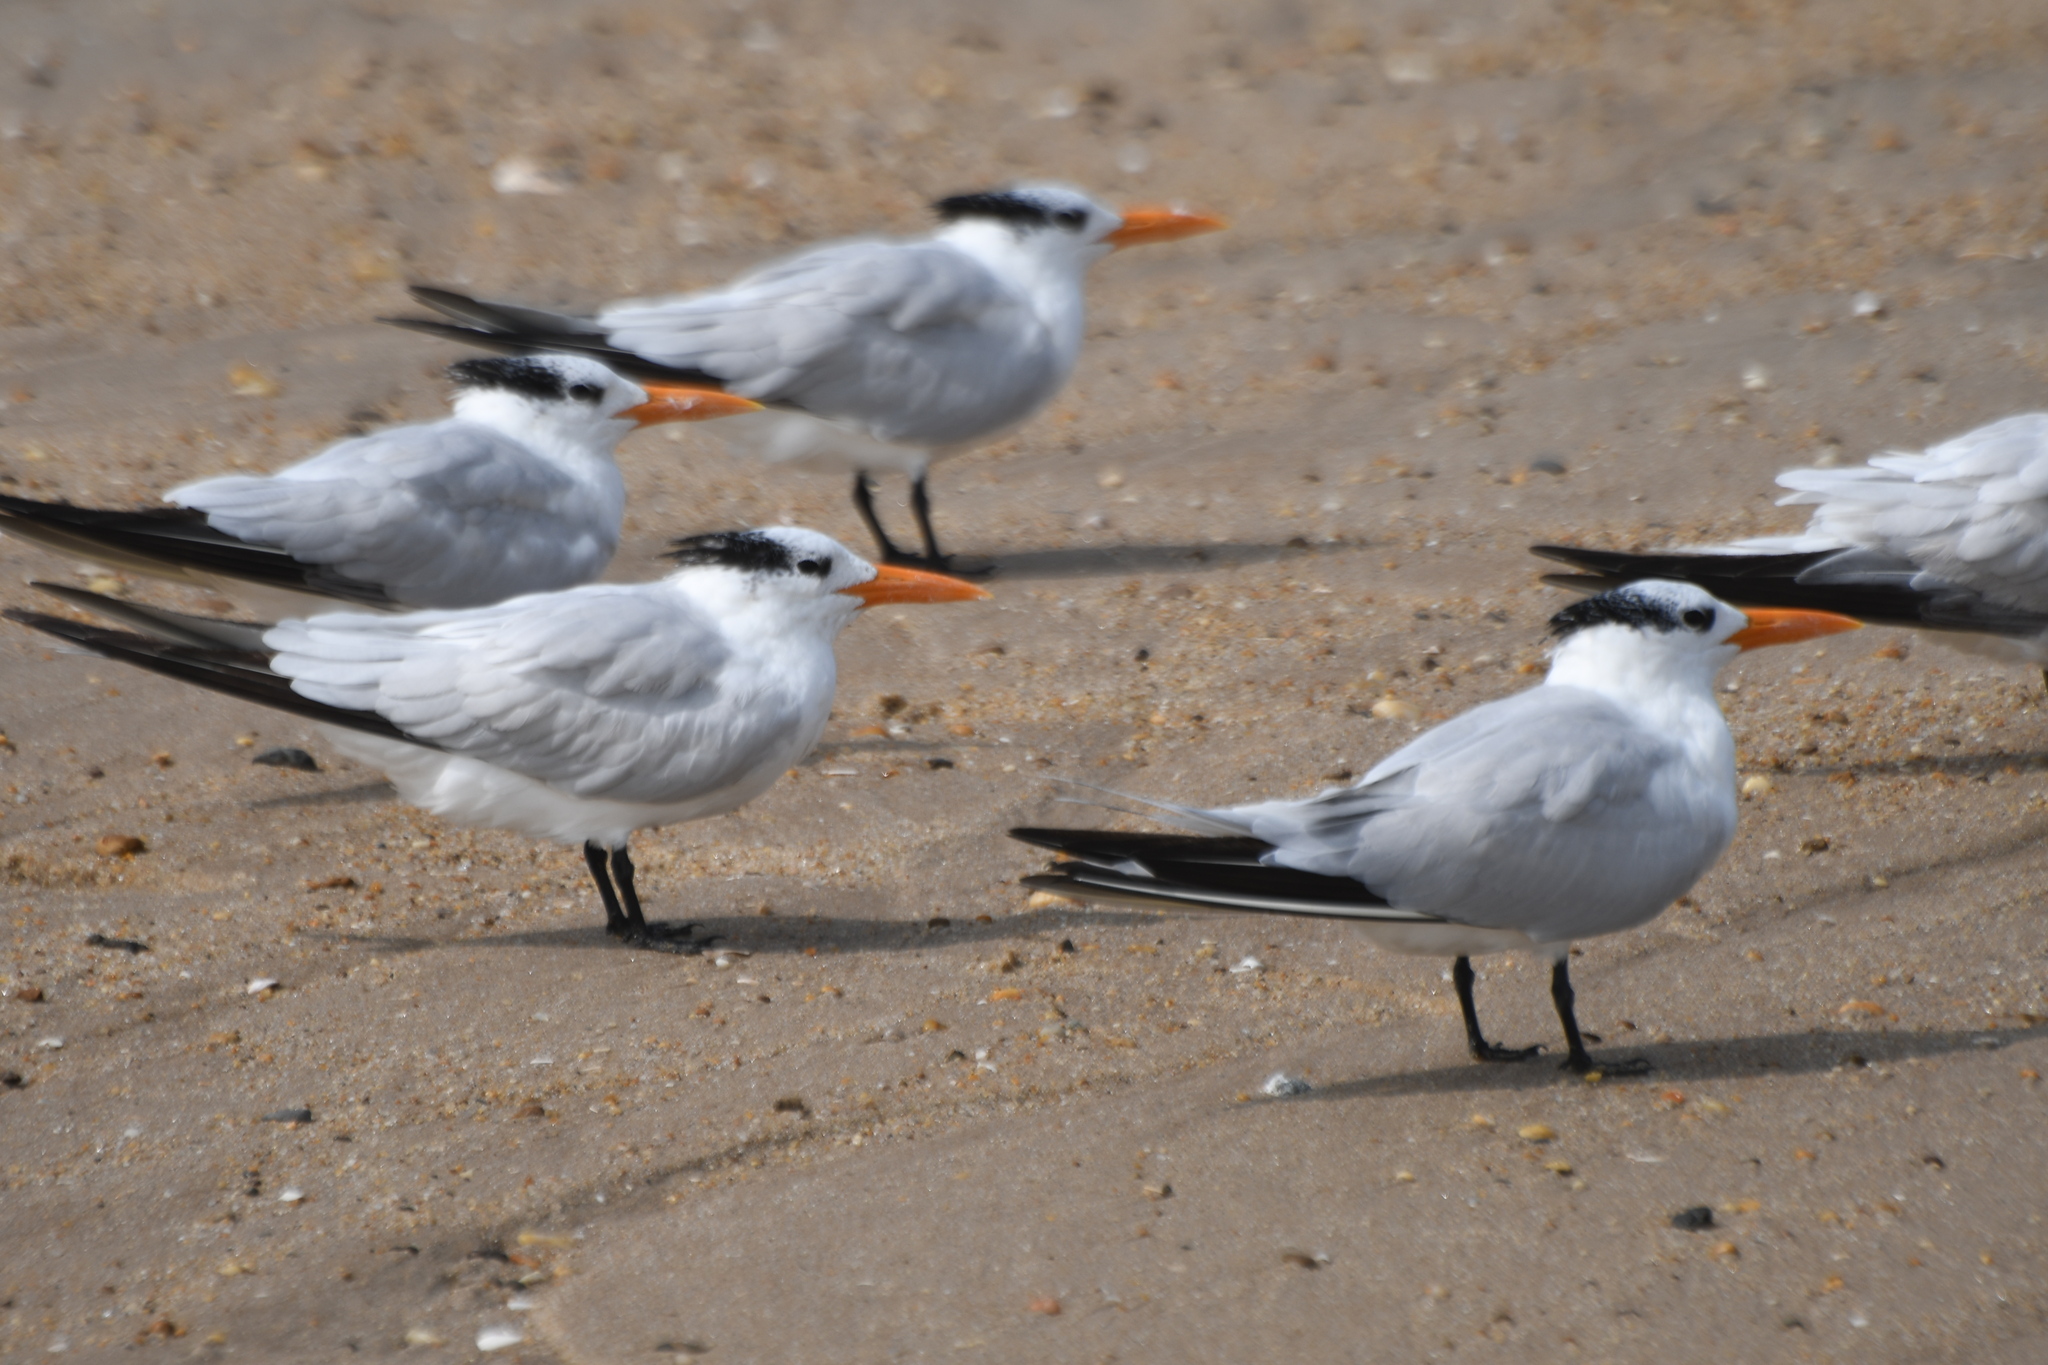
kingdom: Animalia
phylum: Chordata
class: Aves
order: Charadriiformes
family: Laridae
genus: Thalasseus
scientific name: Thalasseus maximus
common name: Royal tern
